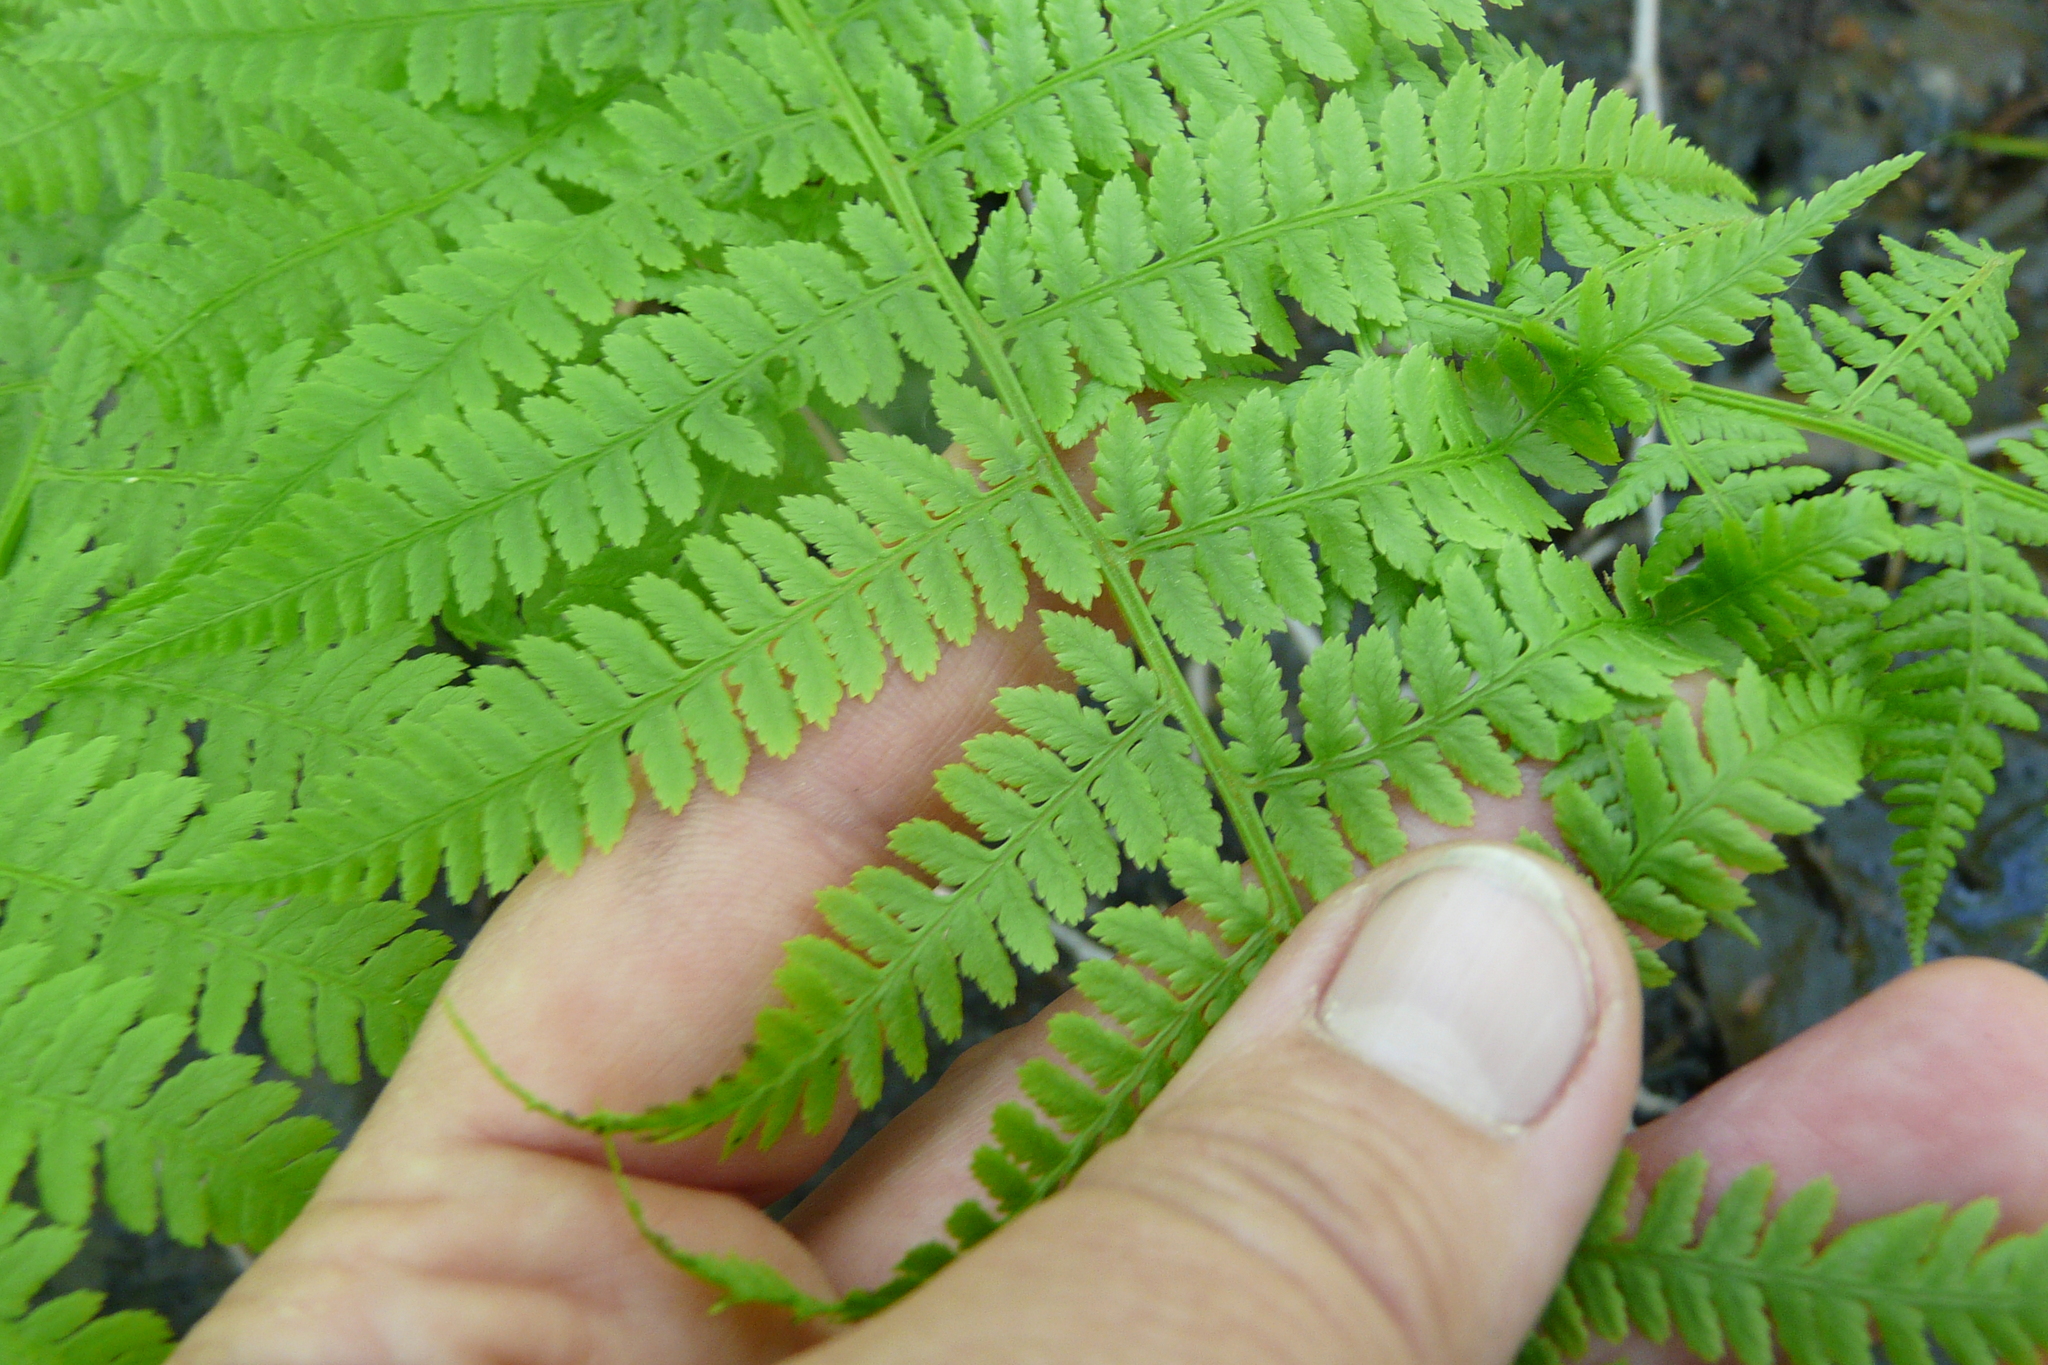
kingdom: Plantae
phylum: Tracheophyta
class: Polypodiopsida
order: Polypodiales
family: Athyriaceae
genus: Athyrium
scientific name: Athyrium filix-femina
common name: Lady fern
